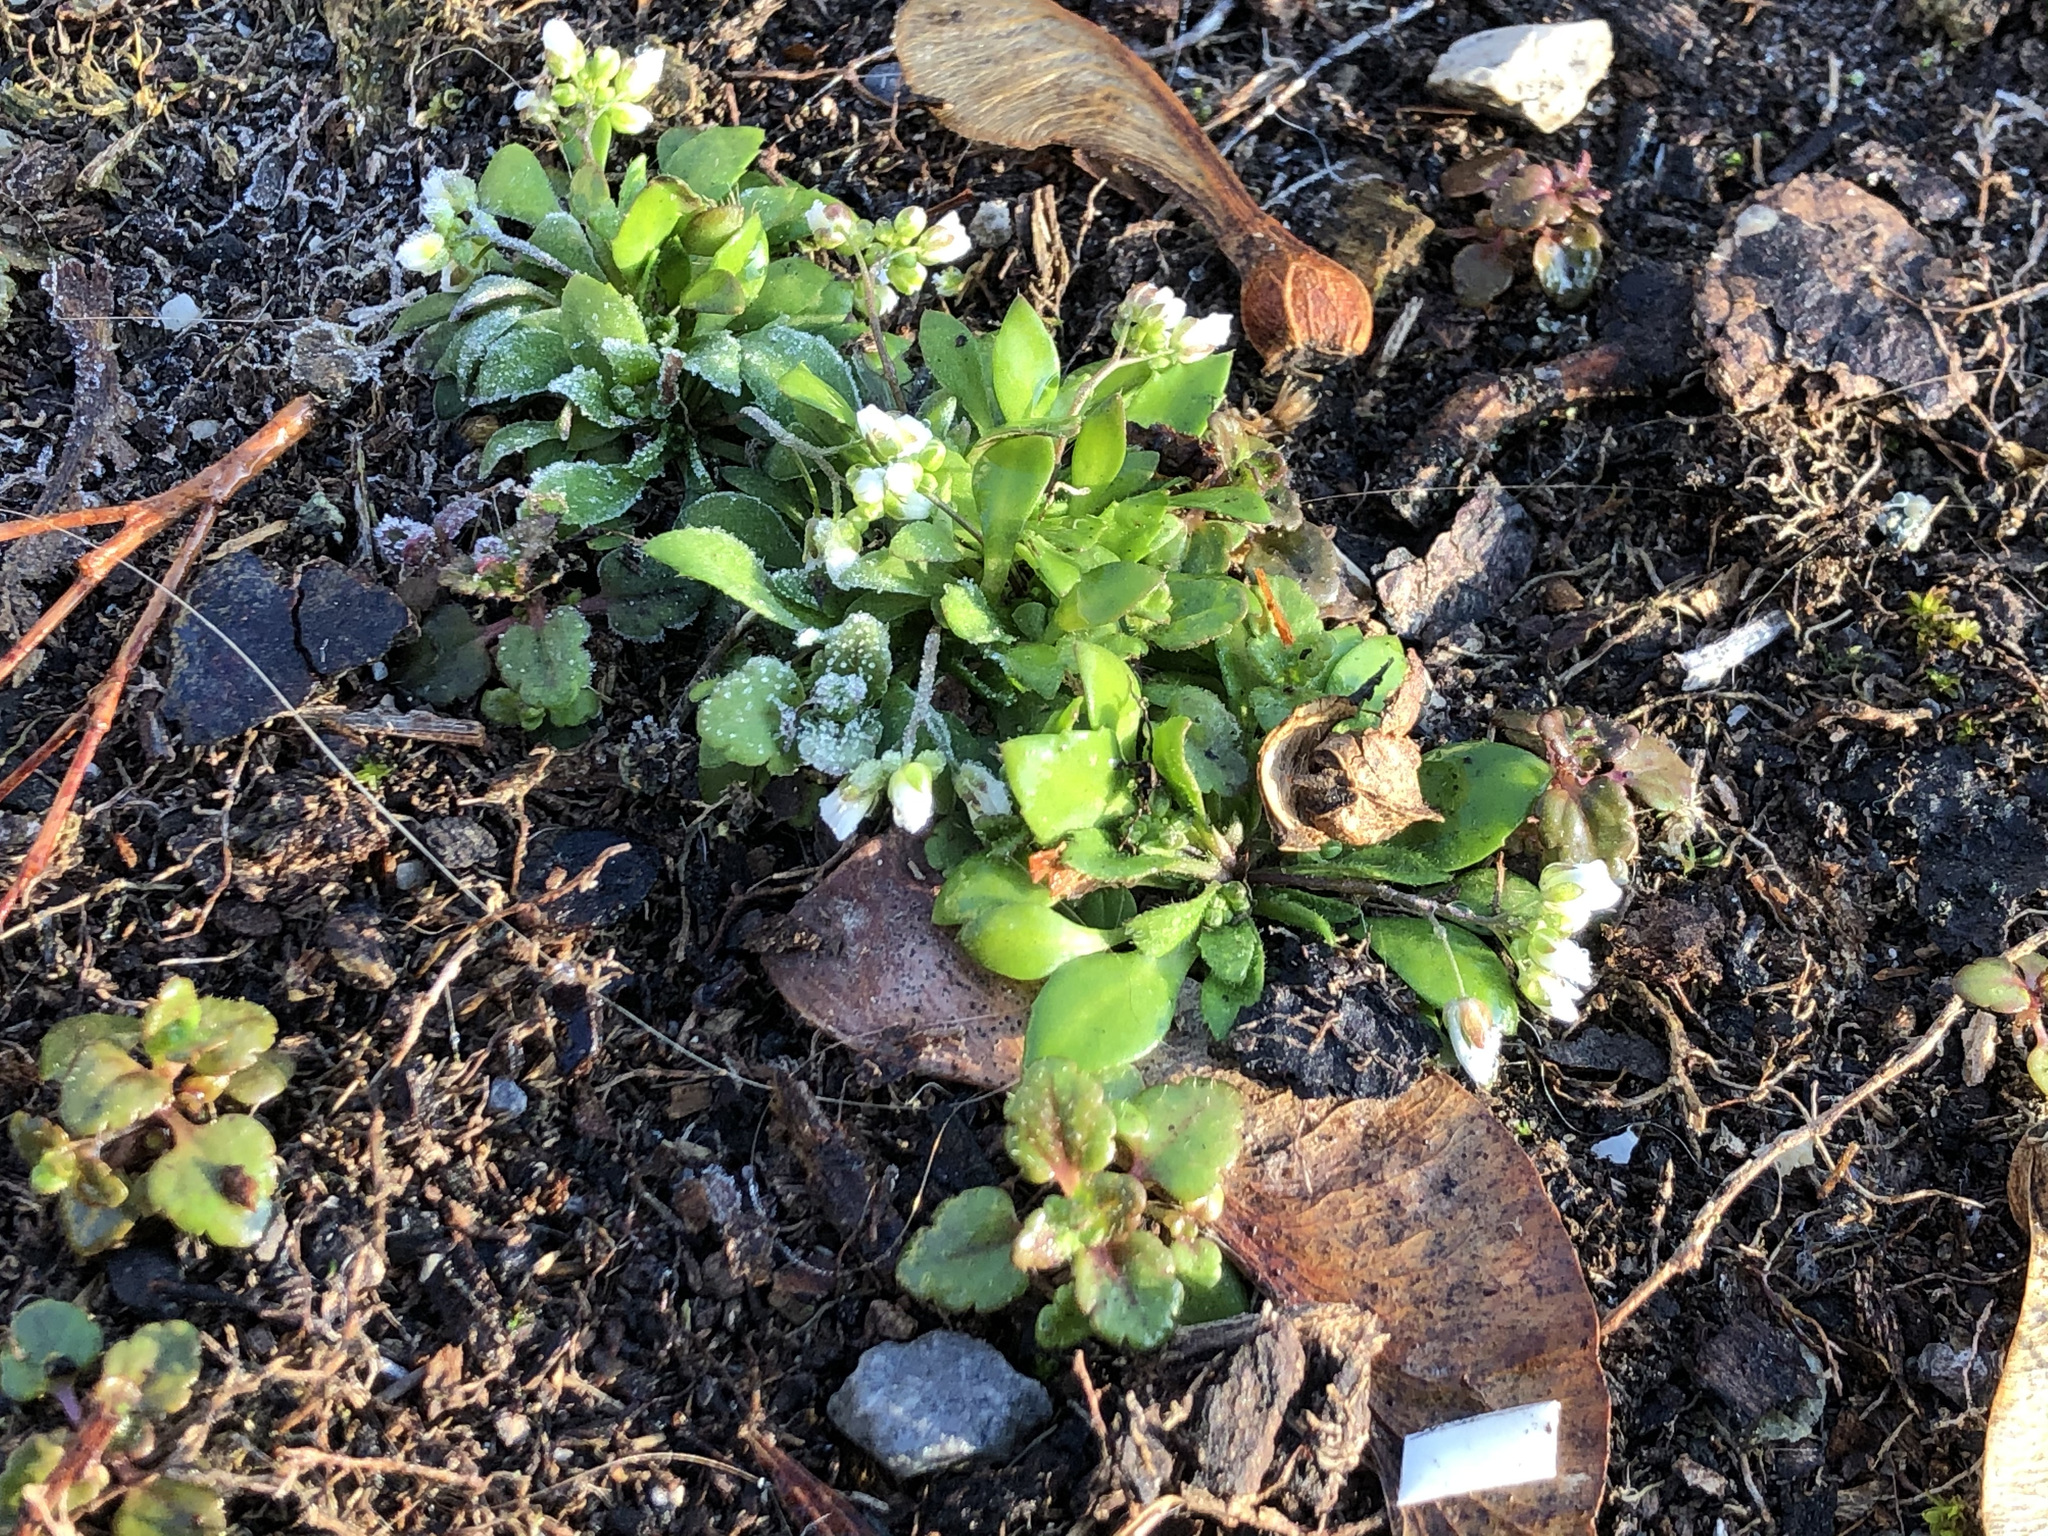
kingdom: Plantae
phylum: Tracheophyta
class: Magnoliopsida
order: Brassicales
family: Brassicaceae
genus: Draba
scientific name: Draba verna
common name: Spring draba
